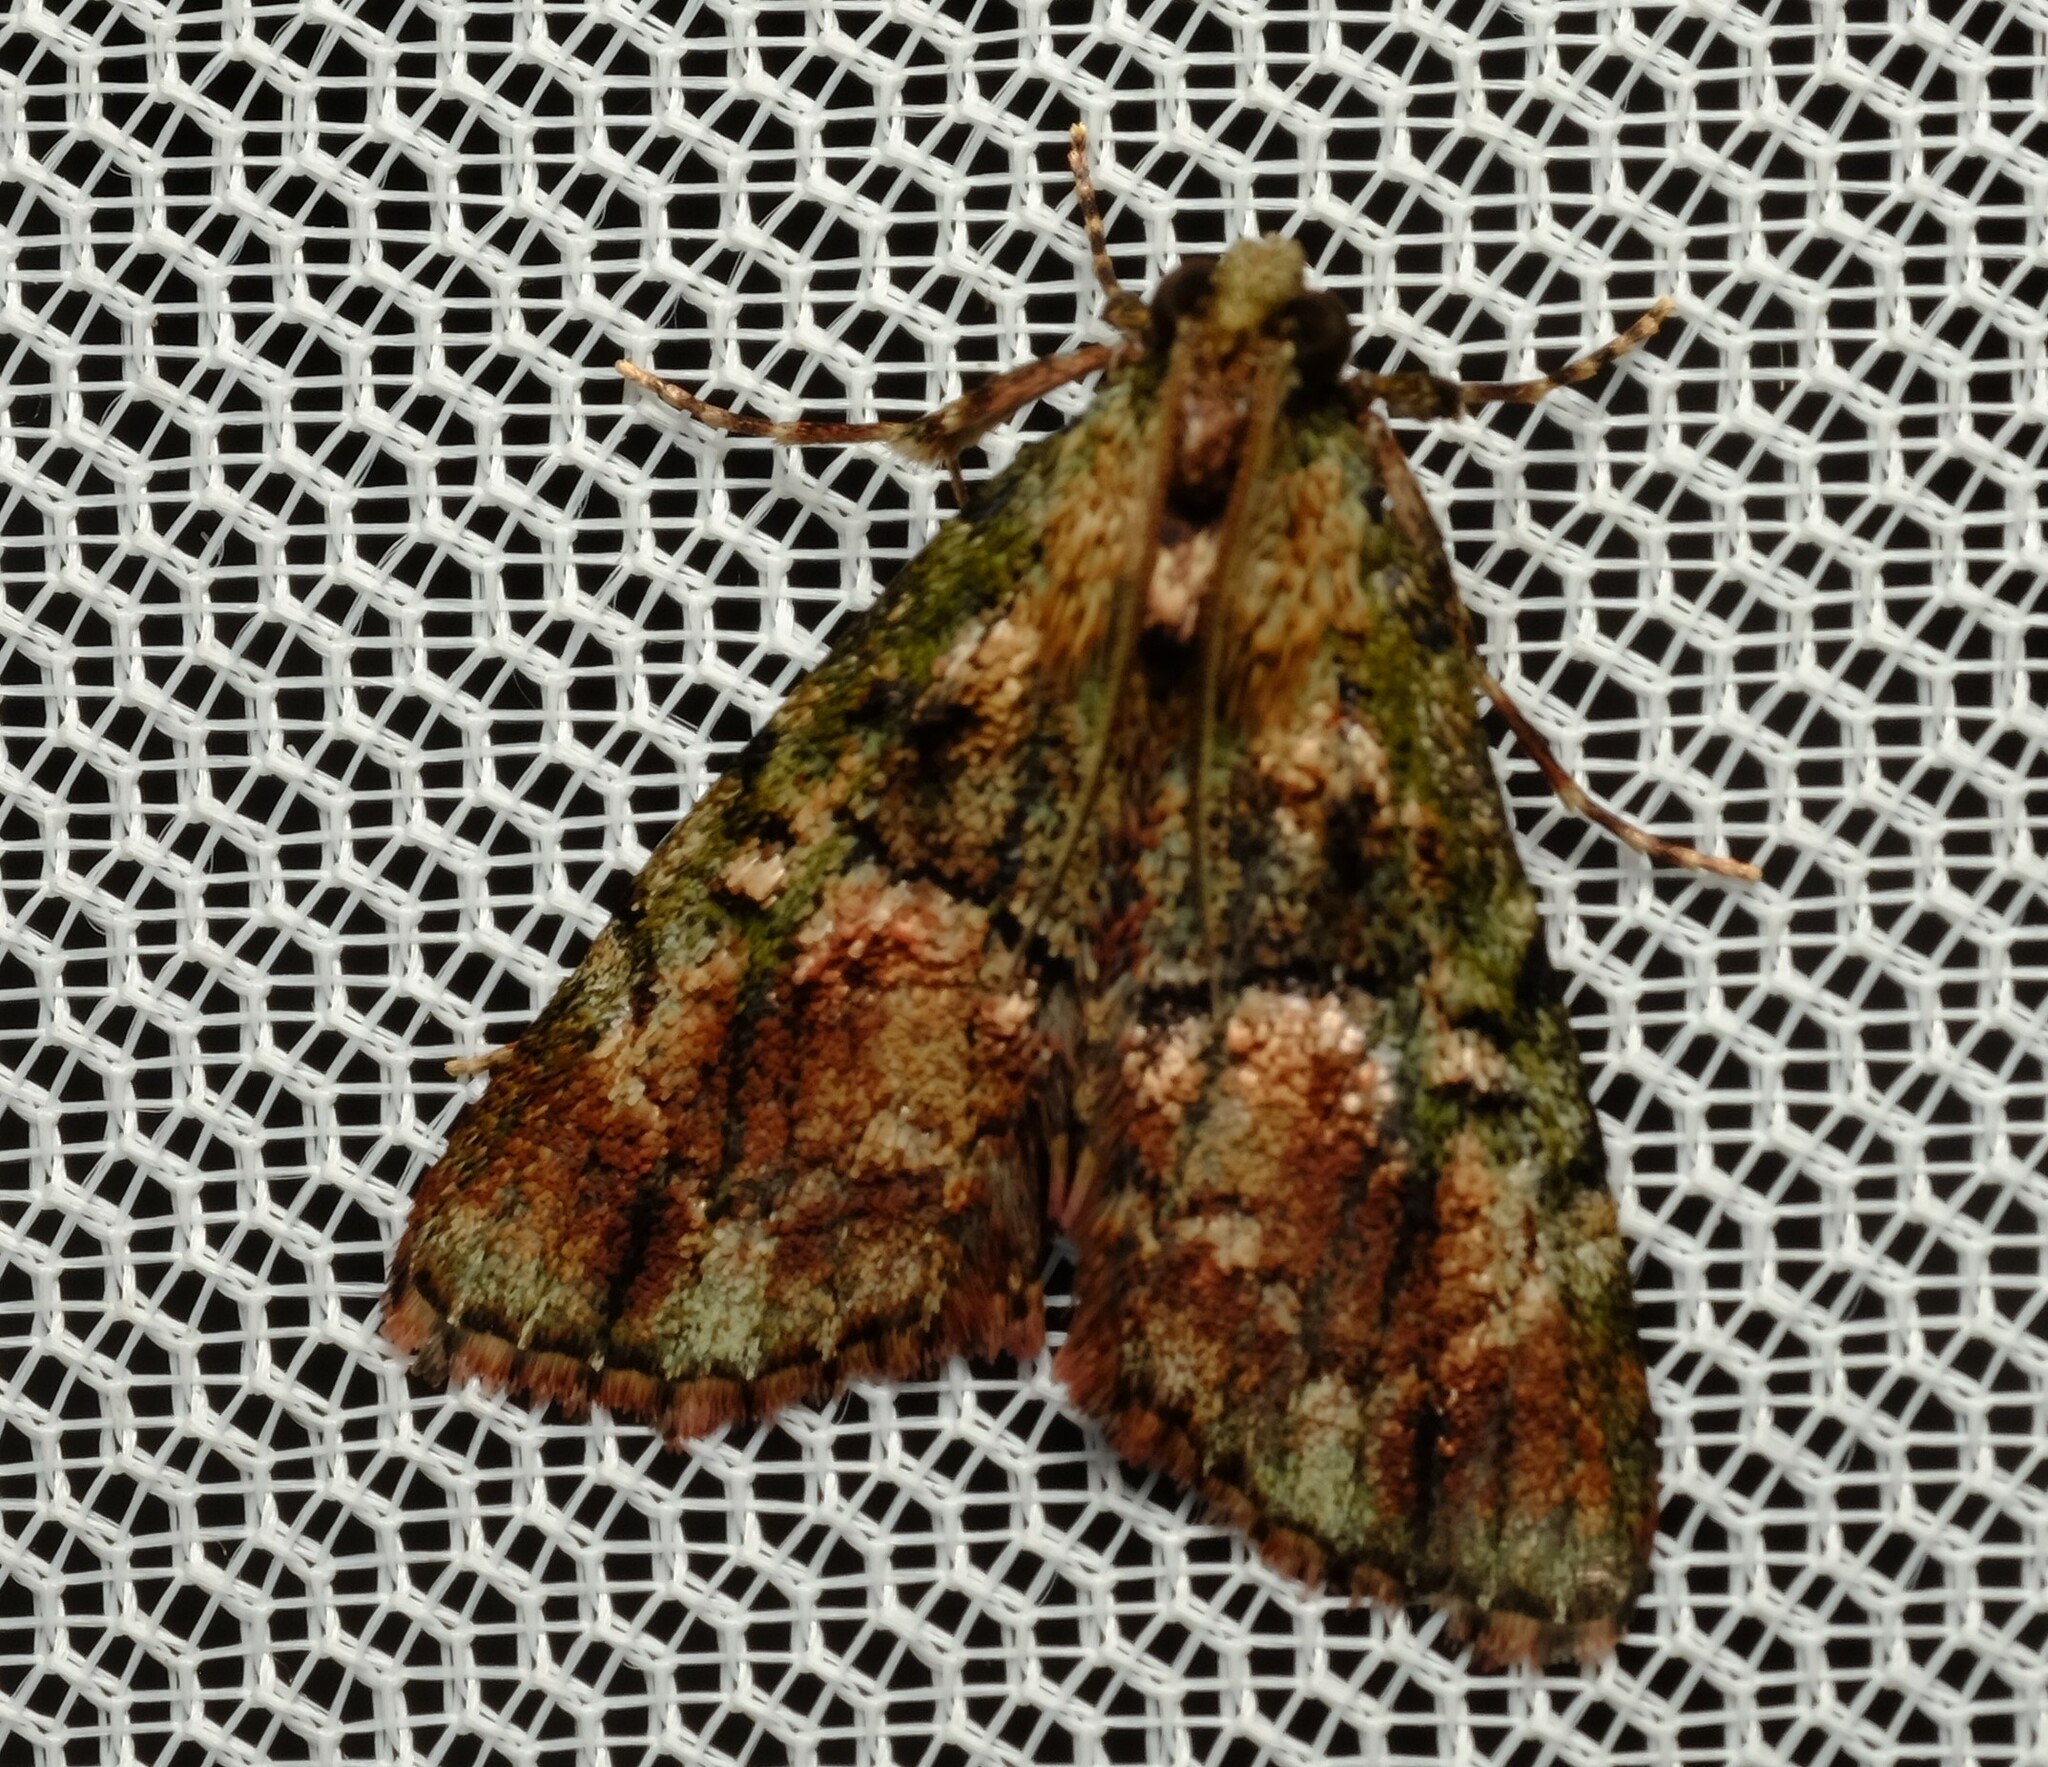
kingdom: Animalia
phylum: Arthropoda
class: Insecta
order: Lepidoptera
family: Pyralidae
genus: Orthaga
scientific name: Orthaga thyrisalis
